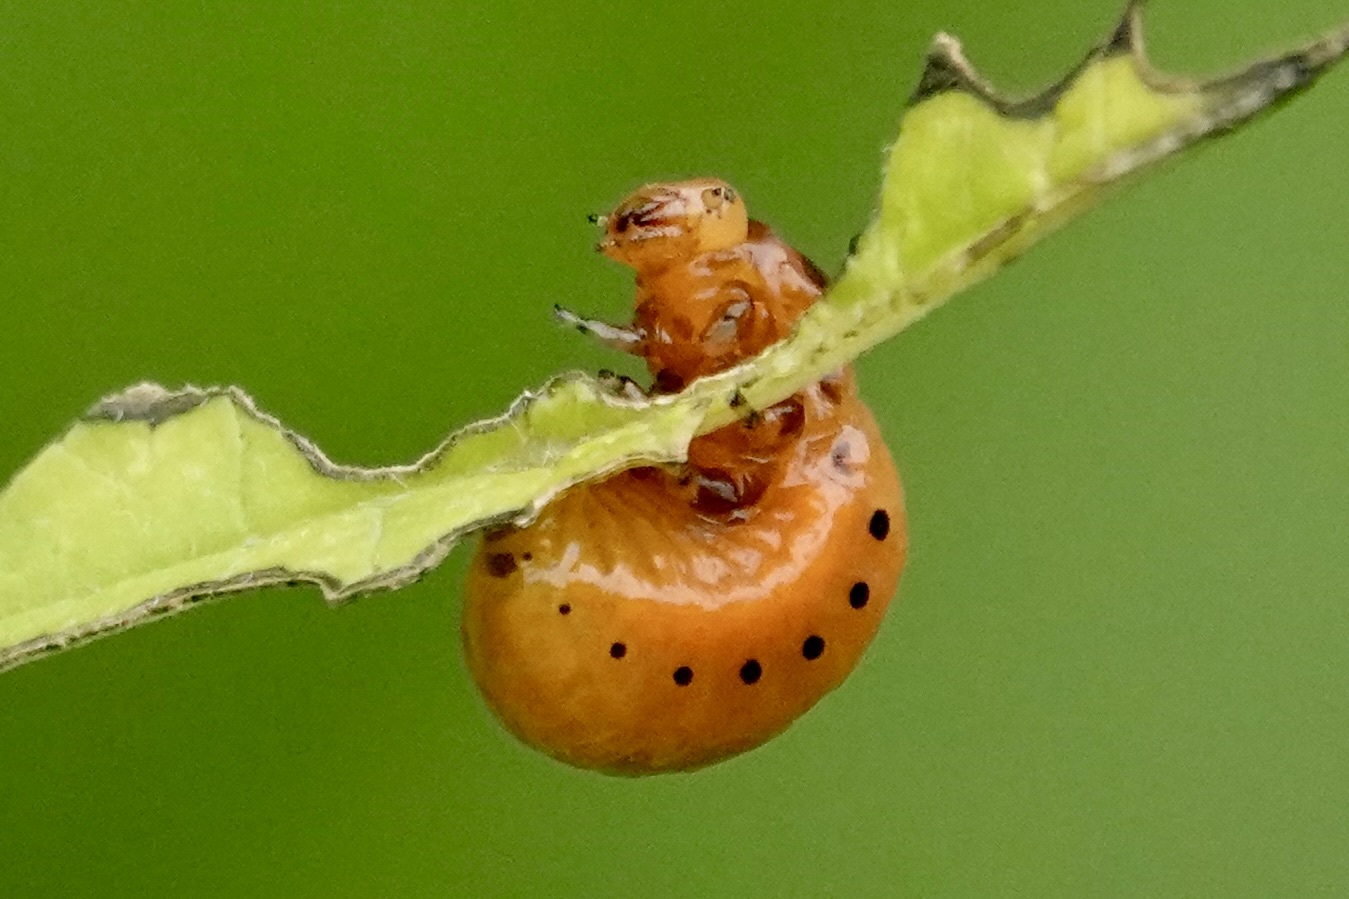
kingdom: Animalia
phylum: Arthropoda
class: Insecta
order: Coleoptera
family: Chrysomelidae
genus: Labidomera
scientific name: Labidomera clivicollis
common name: Swamp milkweed leaf beetle
